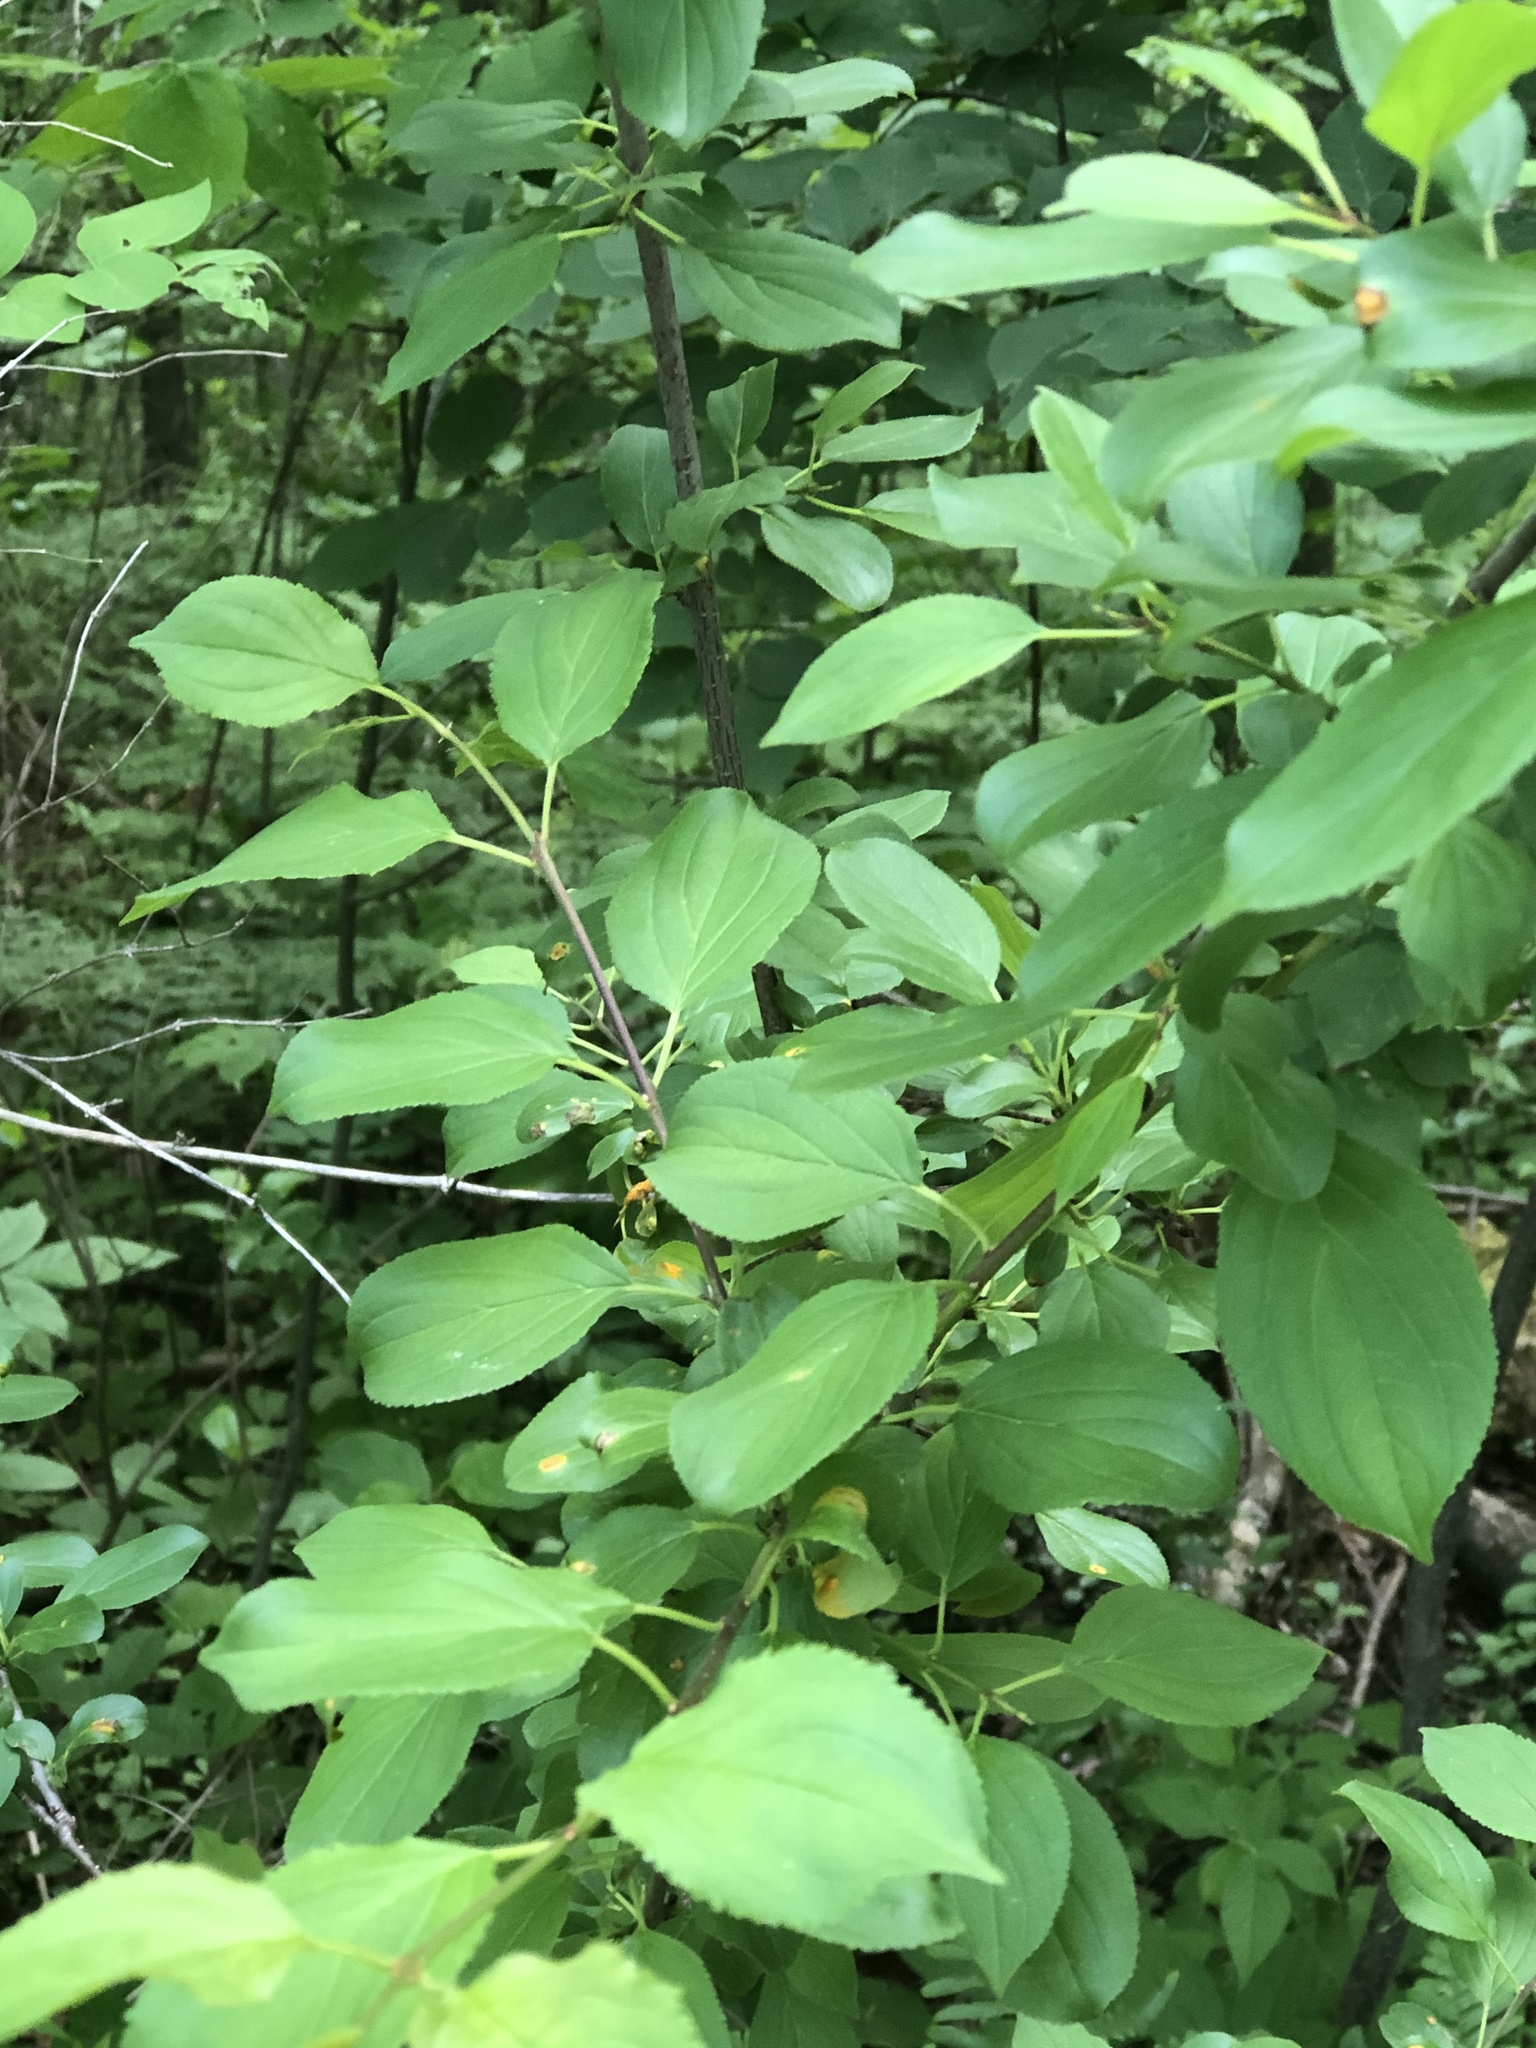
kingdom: Plantae
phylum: Tracheophyta
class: Magnoliopsida
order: Rosales
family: Rhamnaceae
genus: Rhamnus
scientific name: Rhamnus cathartica
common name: Common buckthorn
